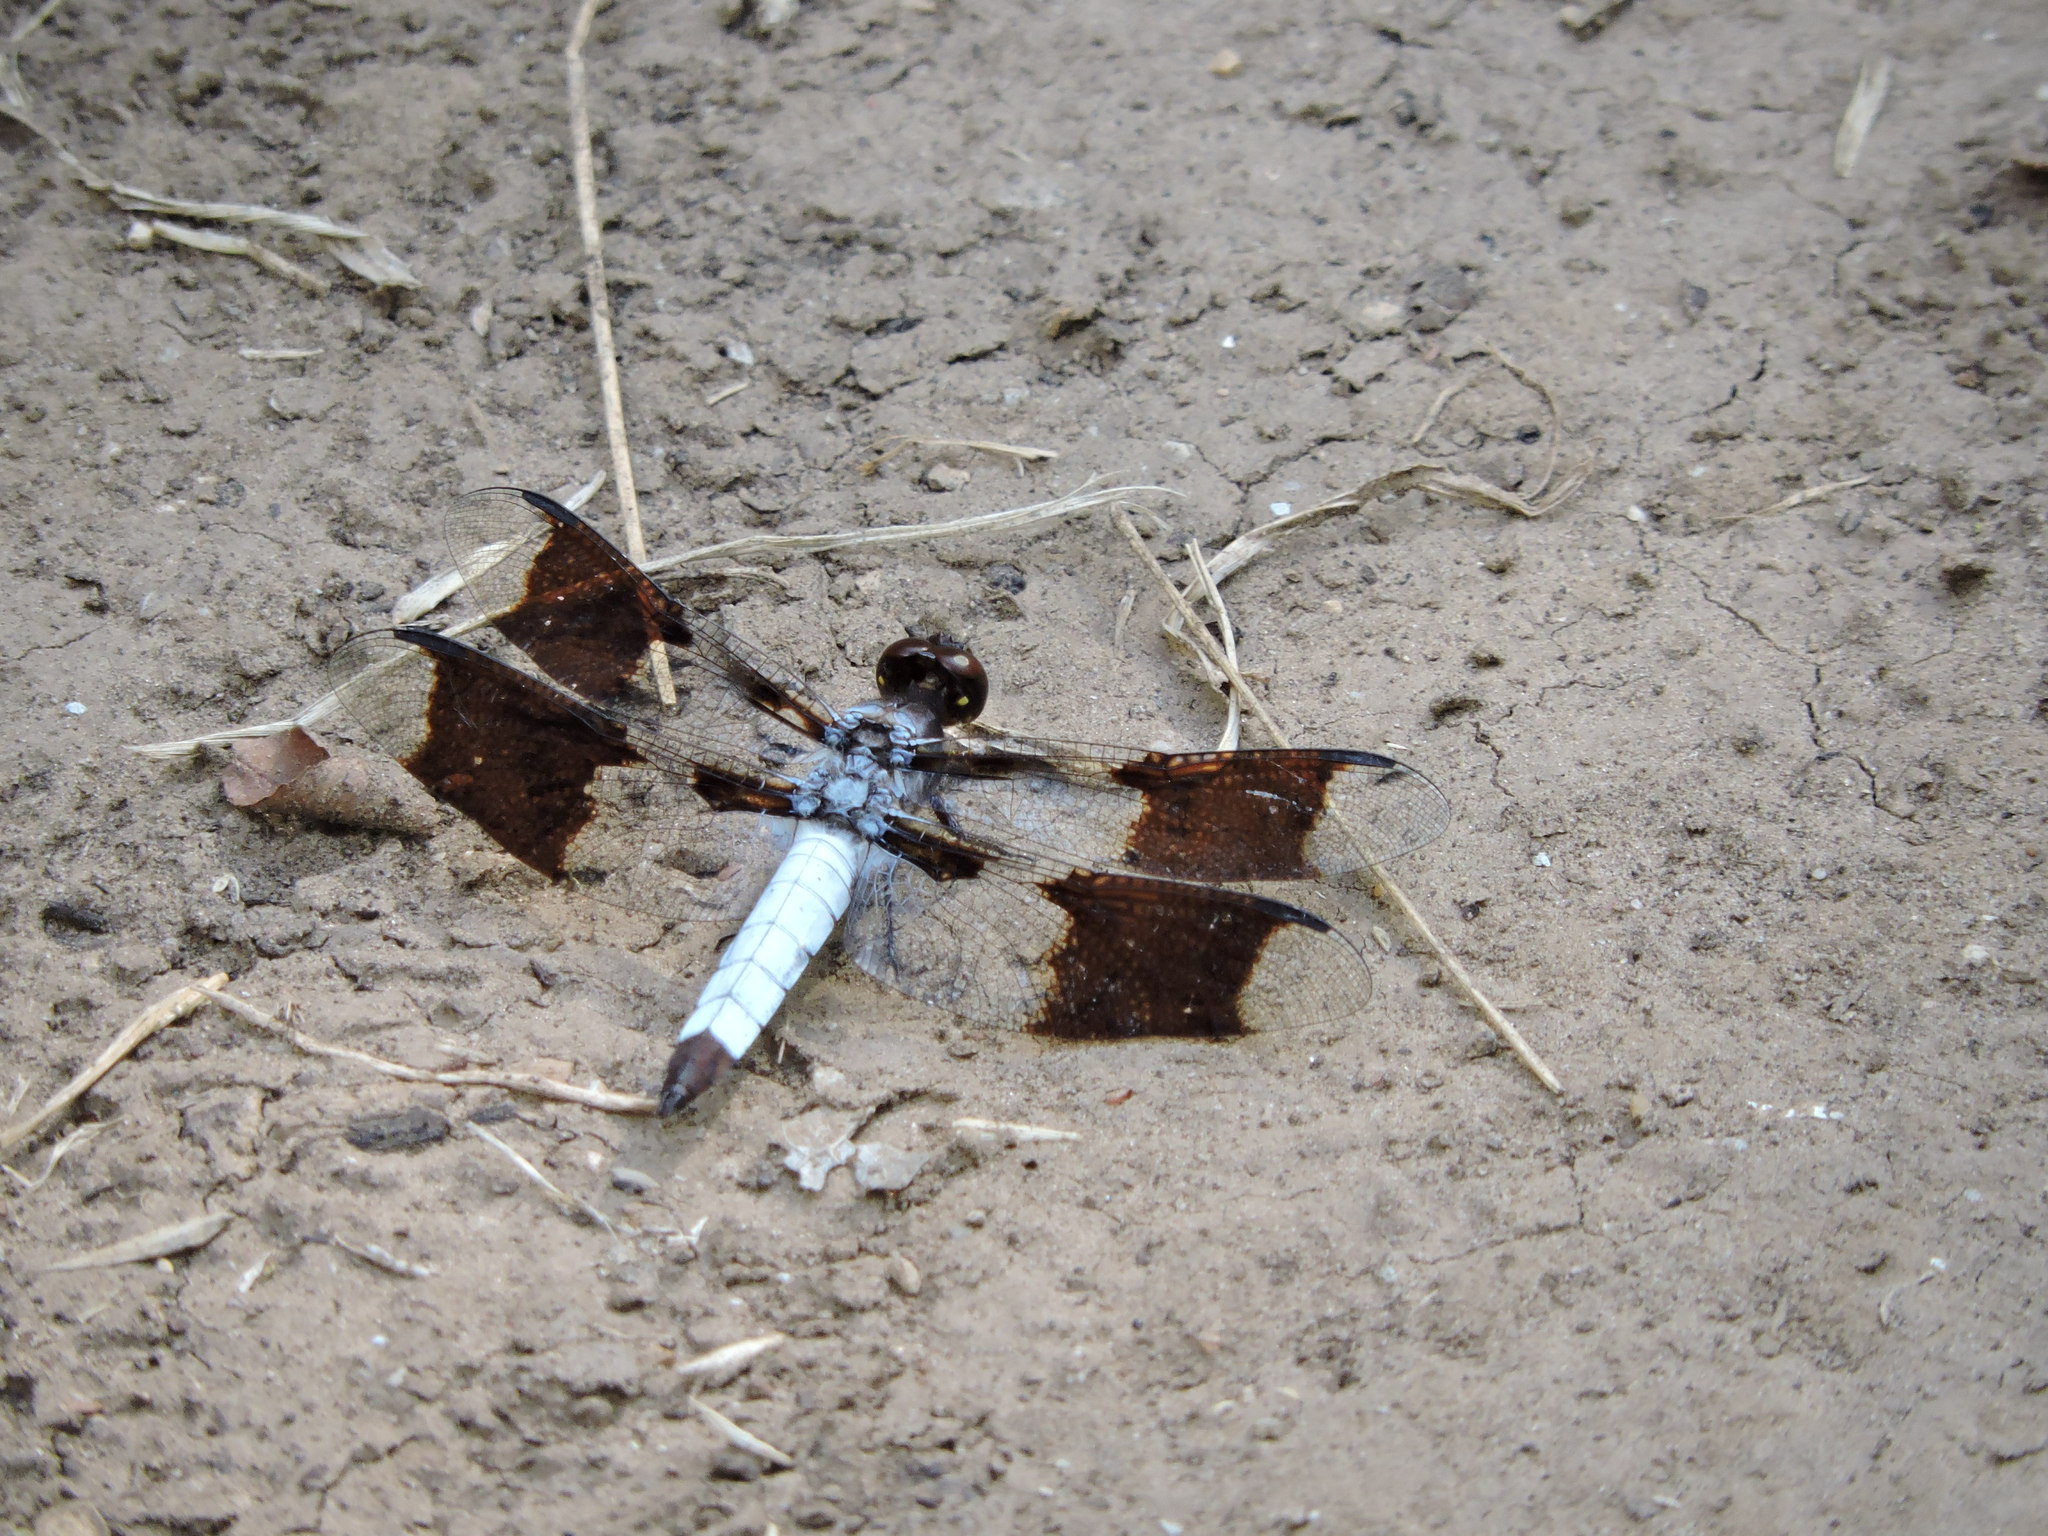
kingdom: Animalia
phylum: Arthropoda
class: Insecta
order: Odonata
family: Libellulidae
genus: Plathemis
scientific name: Plathemis lydia
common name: Common whitetail
